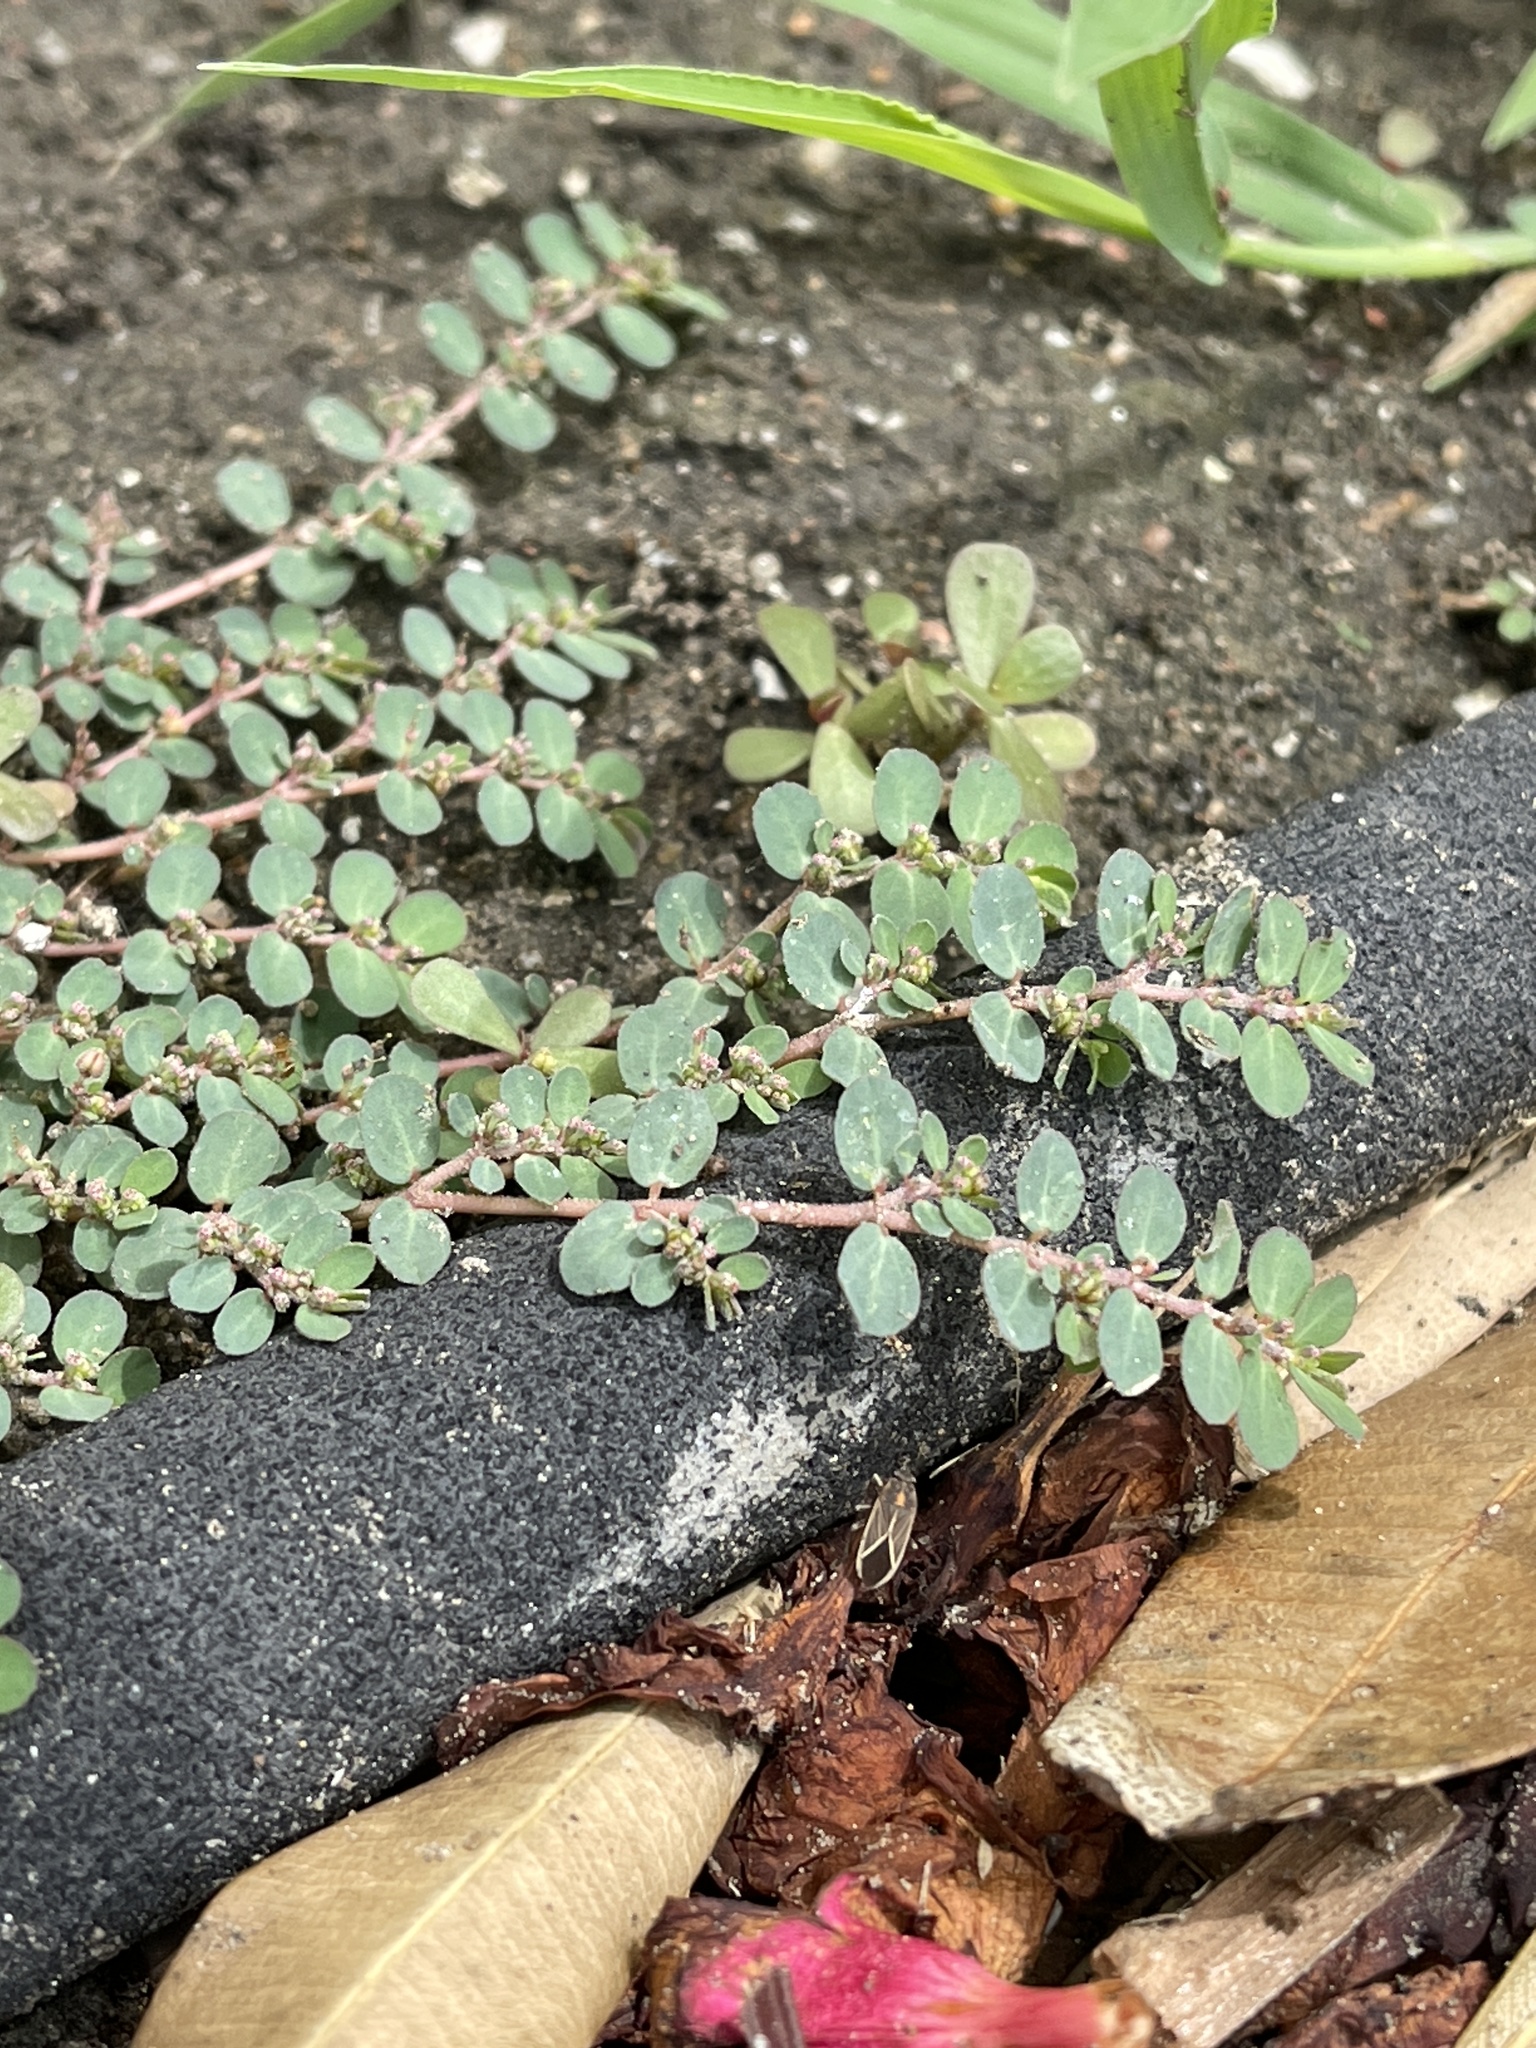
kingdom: Plantae
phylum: Tracheophyta
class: Magnoliopsida
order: Malpighiales
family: Euphorbiaceae
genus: Euphorbia
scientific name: Euphorbia prostrata
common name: Prostrate sandmat
